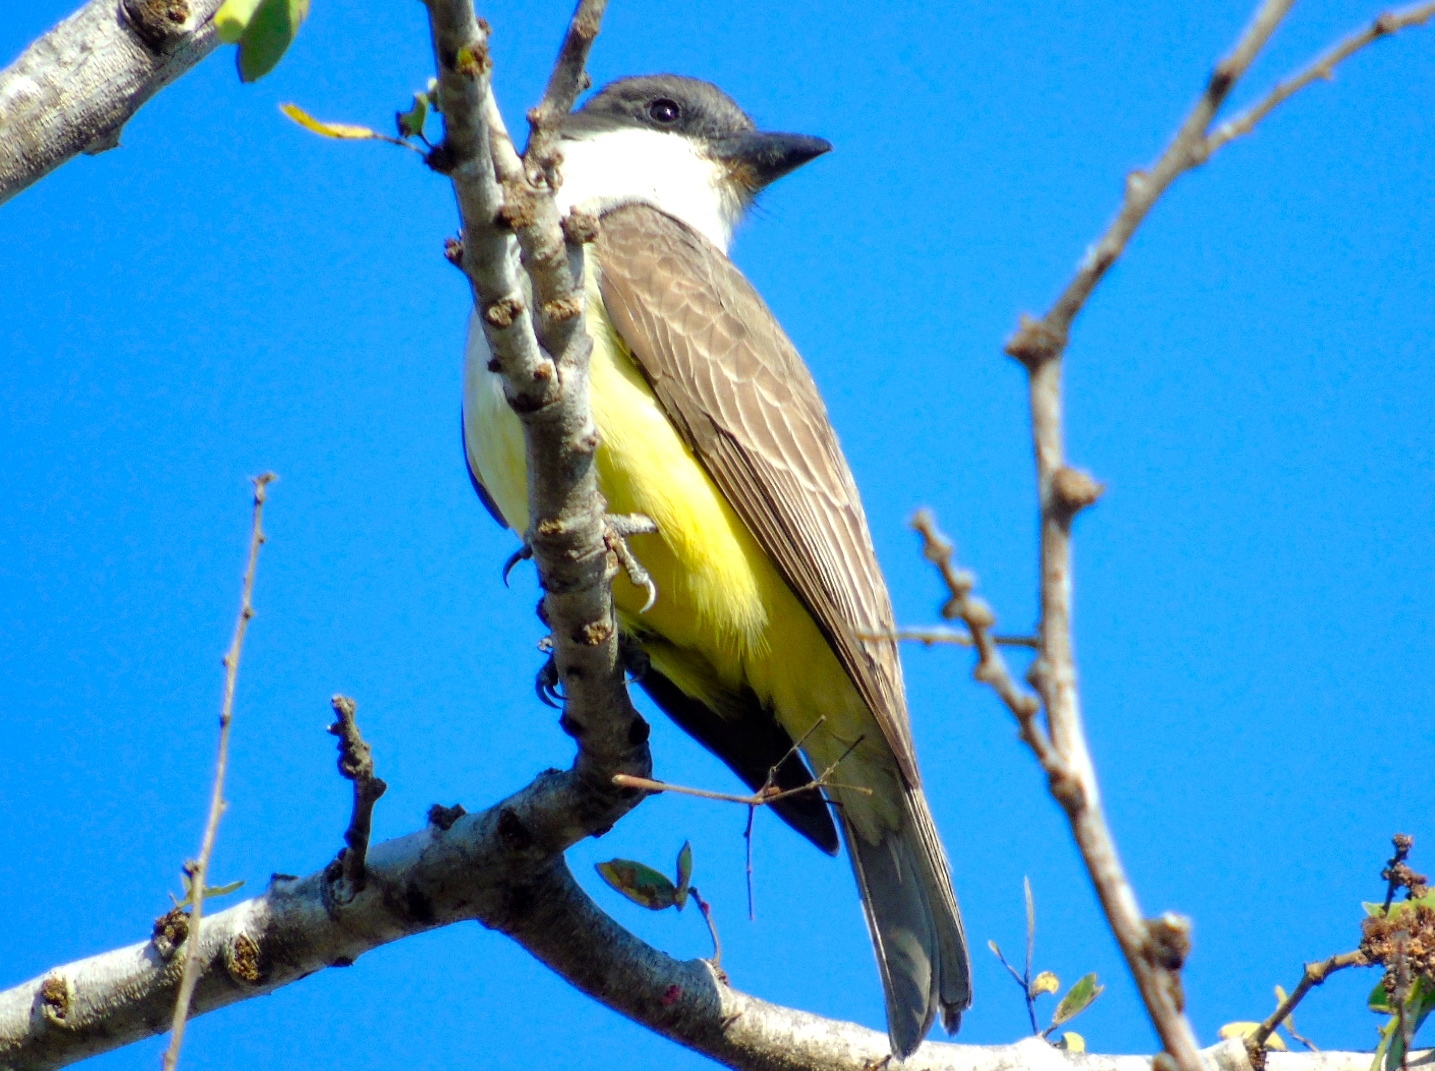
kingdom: Animalia
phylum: Chordata
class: Aves
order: Passeriformes
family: Tyrannidae
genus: Tyrannus
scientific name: Tyrannus crassirostris
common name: Thick-billed kingbird
